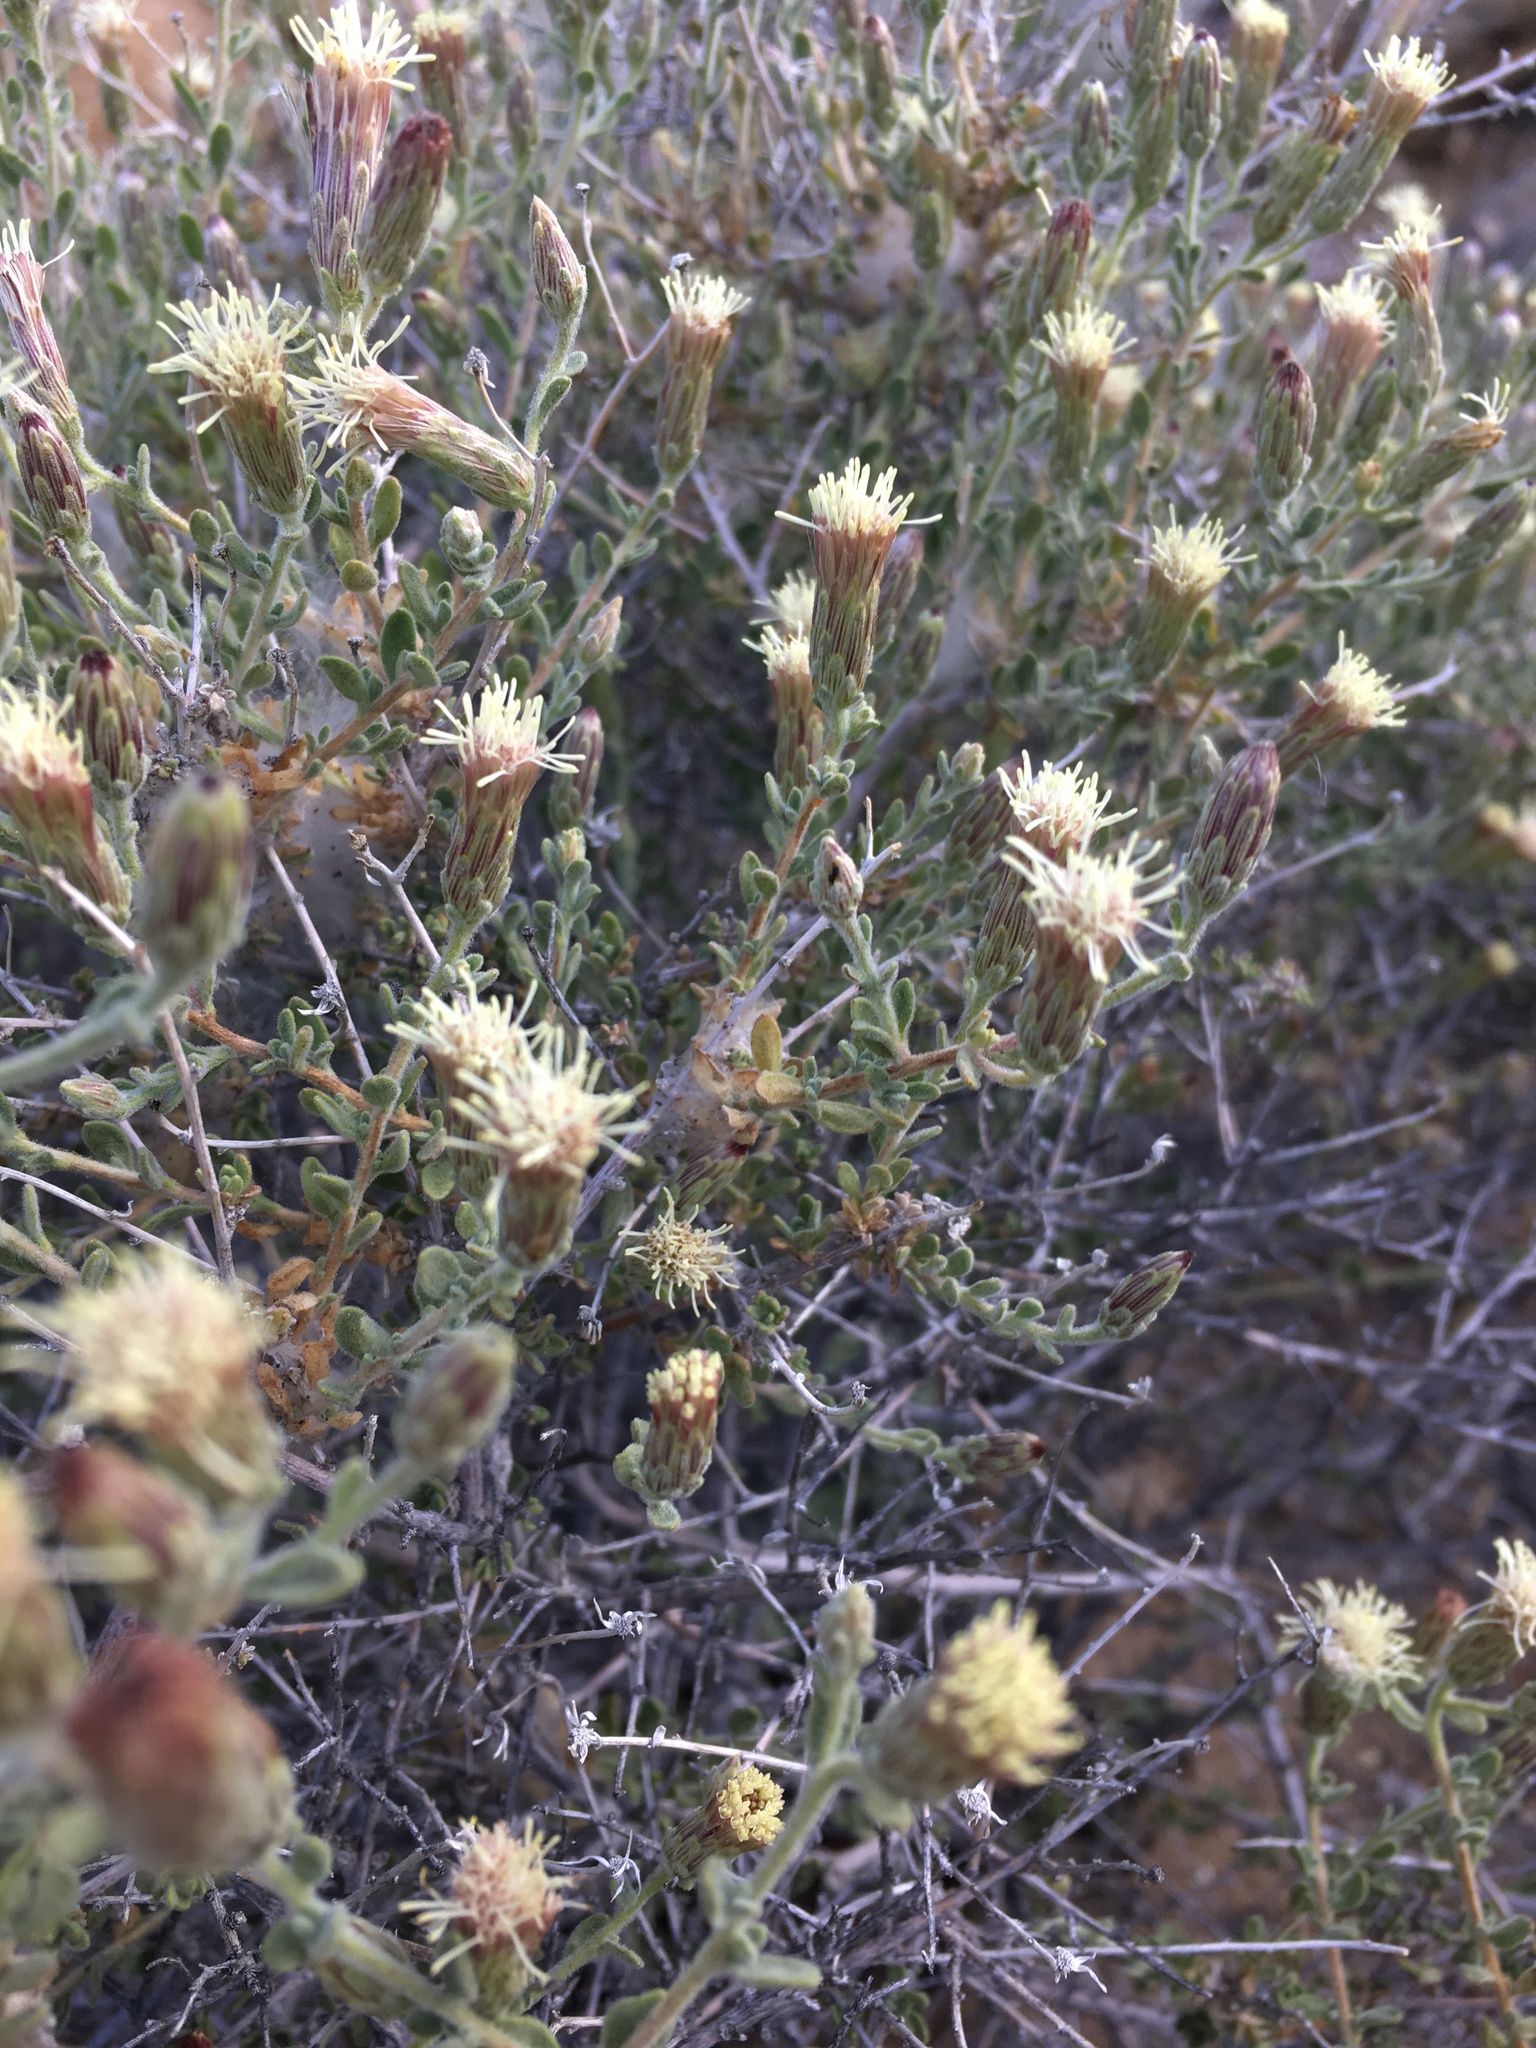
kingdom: Plantae
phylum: Tracheophyta
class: Magnoliopsida
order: Asterales
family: Asteraceae
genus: Brickellia
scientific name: Brickellia frutescens
